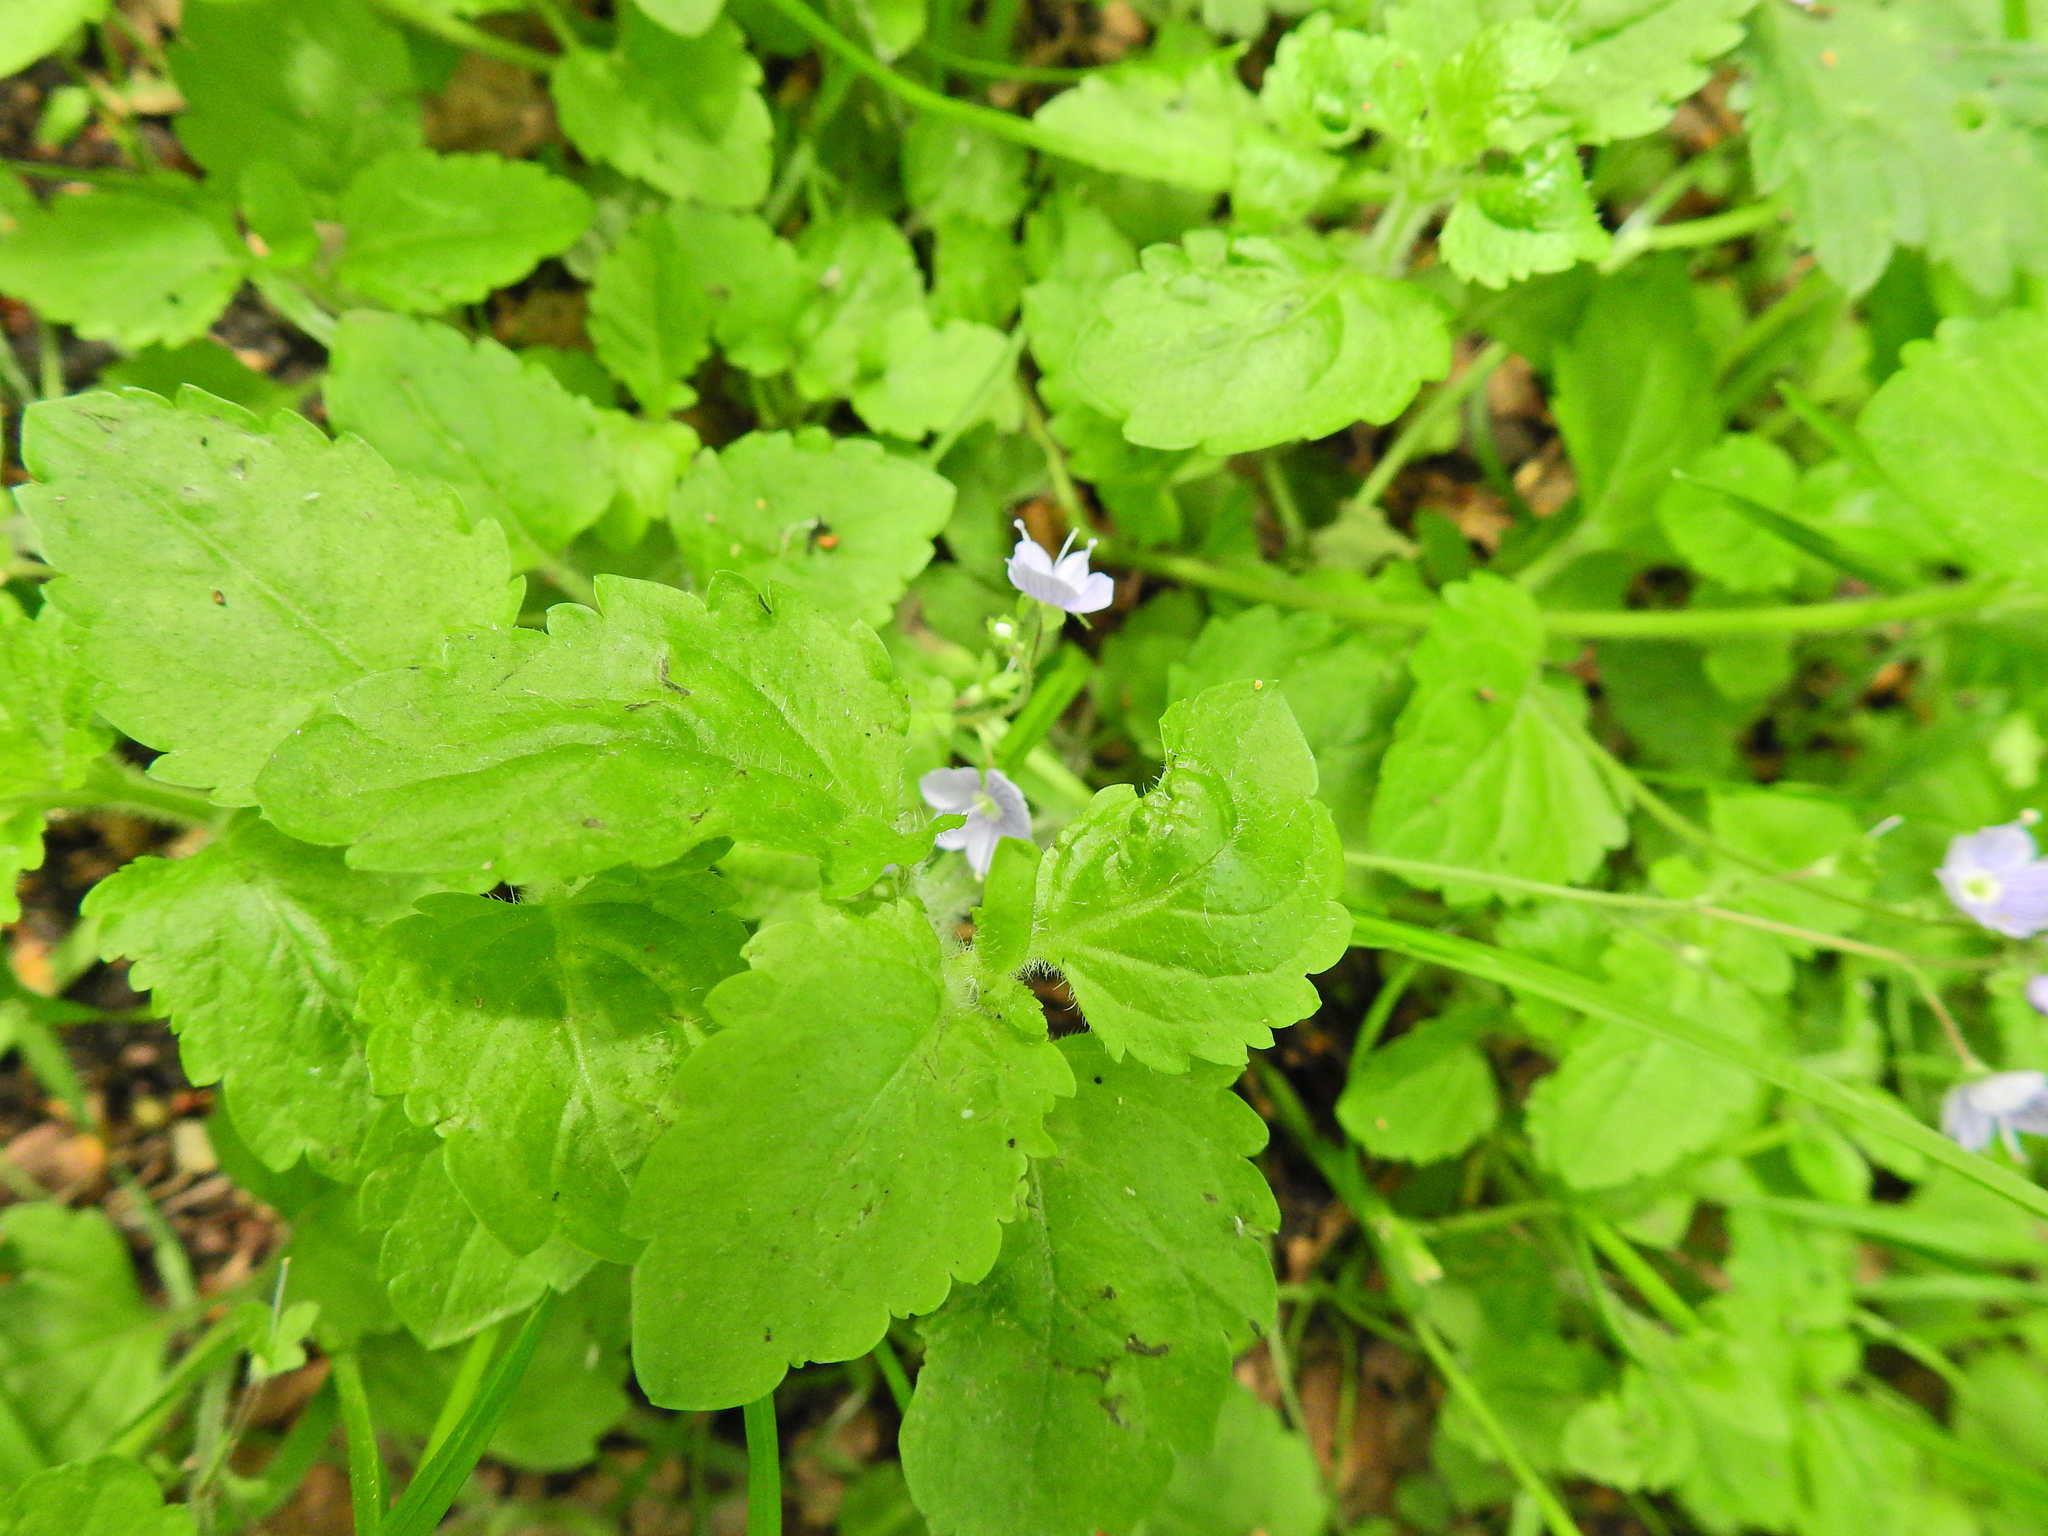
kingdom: Plantae
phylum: Tracheophyta
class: Magnoliopsida
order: Lamiales
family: Plantaginaceae
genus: Veronica
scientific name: Veronica montana
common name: Wood speedwell
